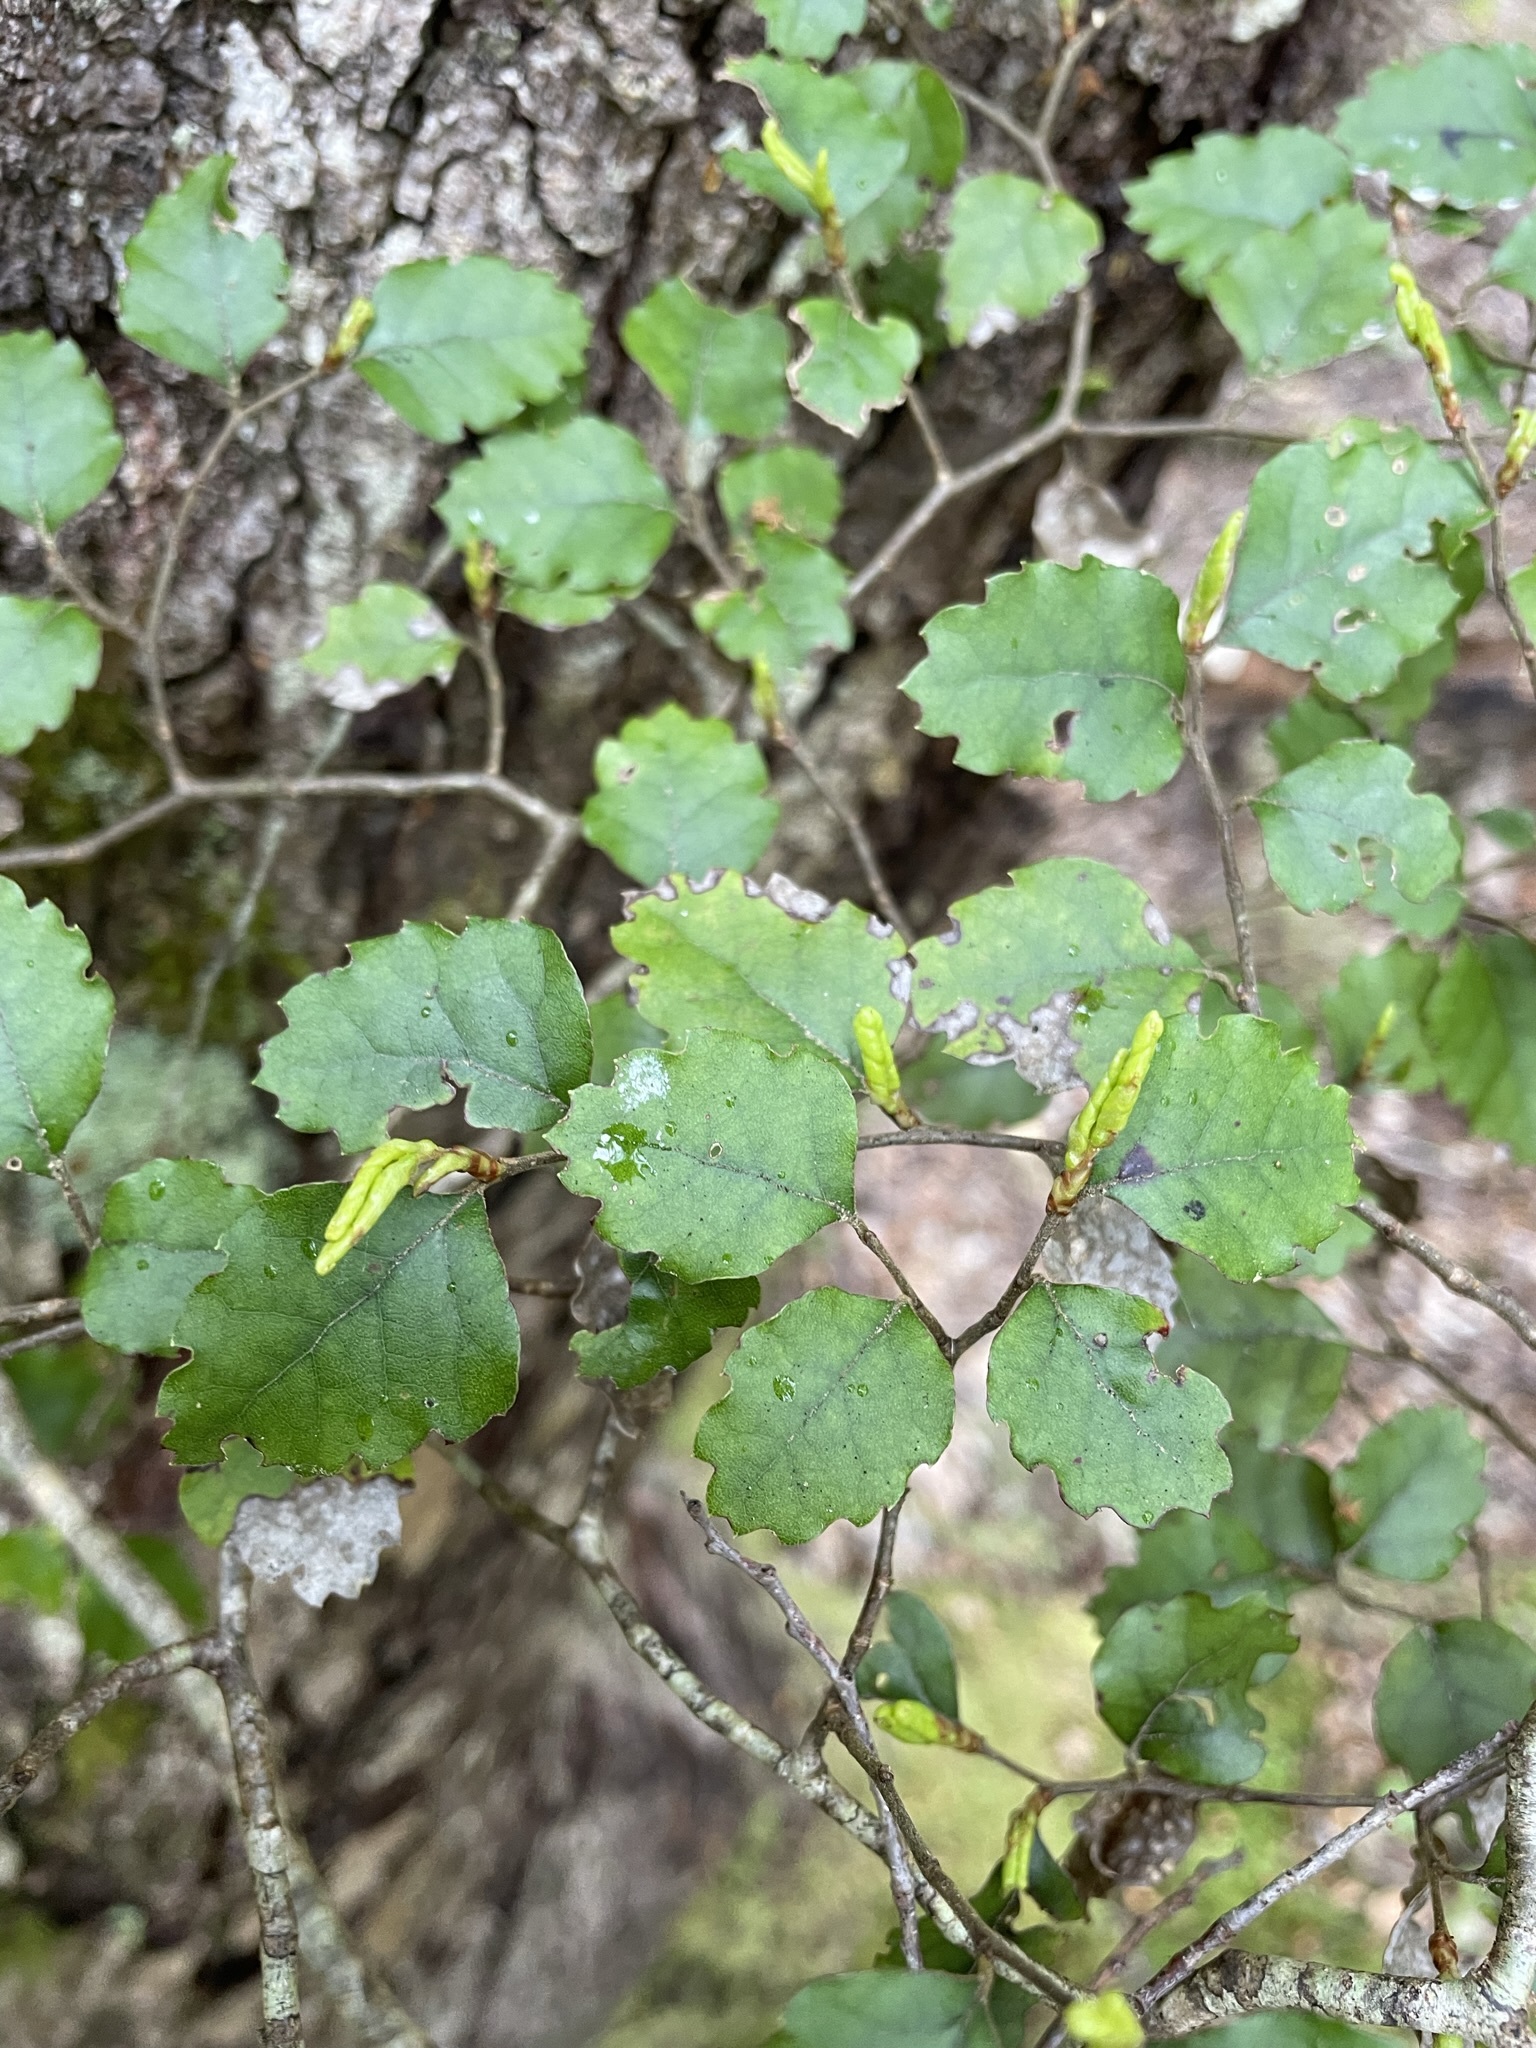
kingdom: Plantae
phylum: Tracheophyta
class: Magnoliopsida
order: Fagales
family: Nothofagaceae
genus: Nothofagus
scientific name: Nothofagus fusca
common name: Red beech
